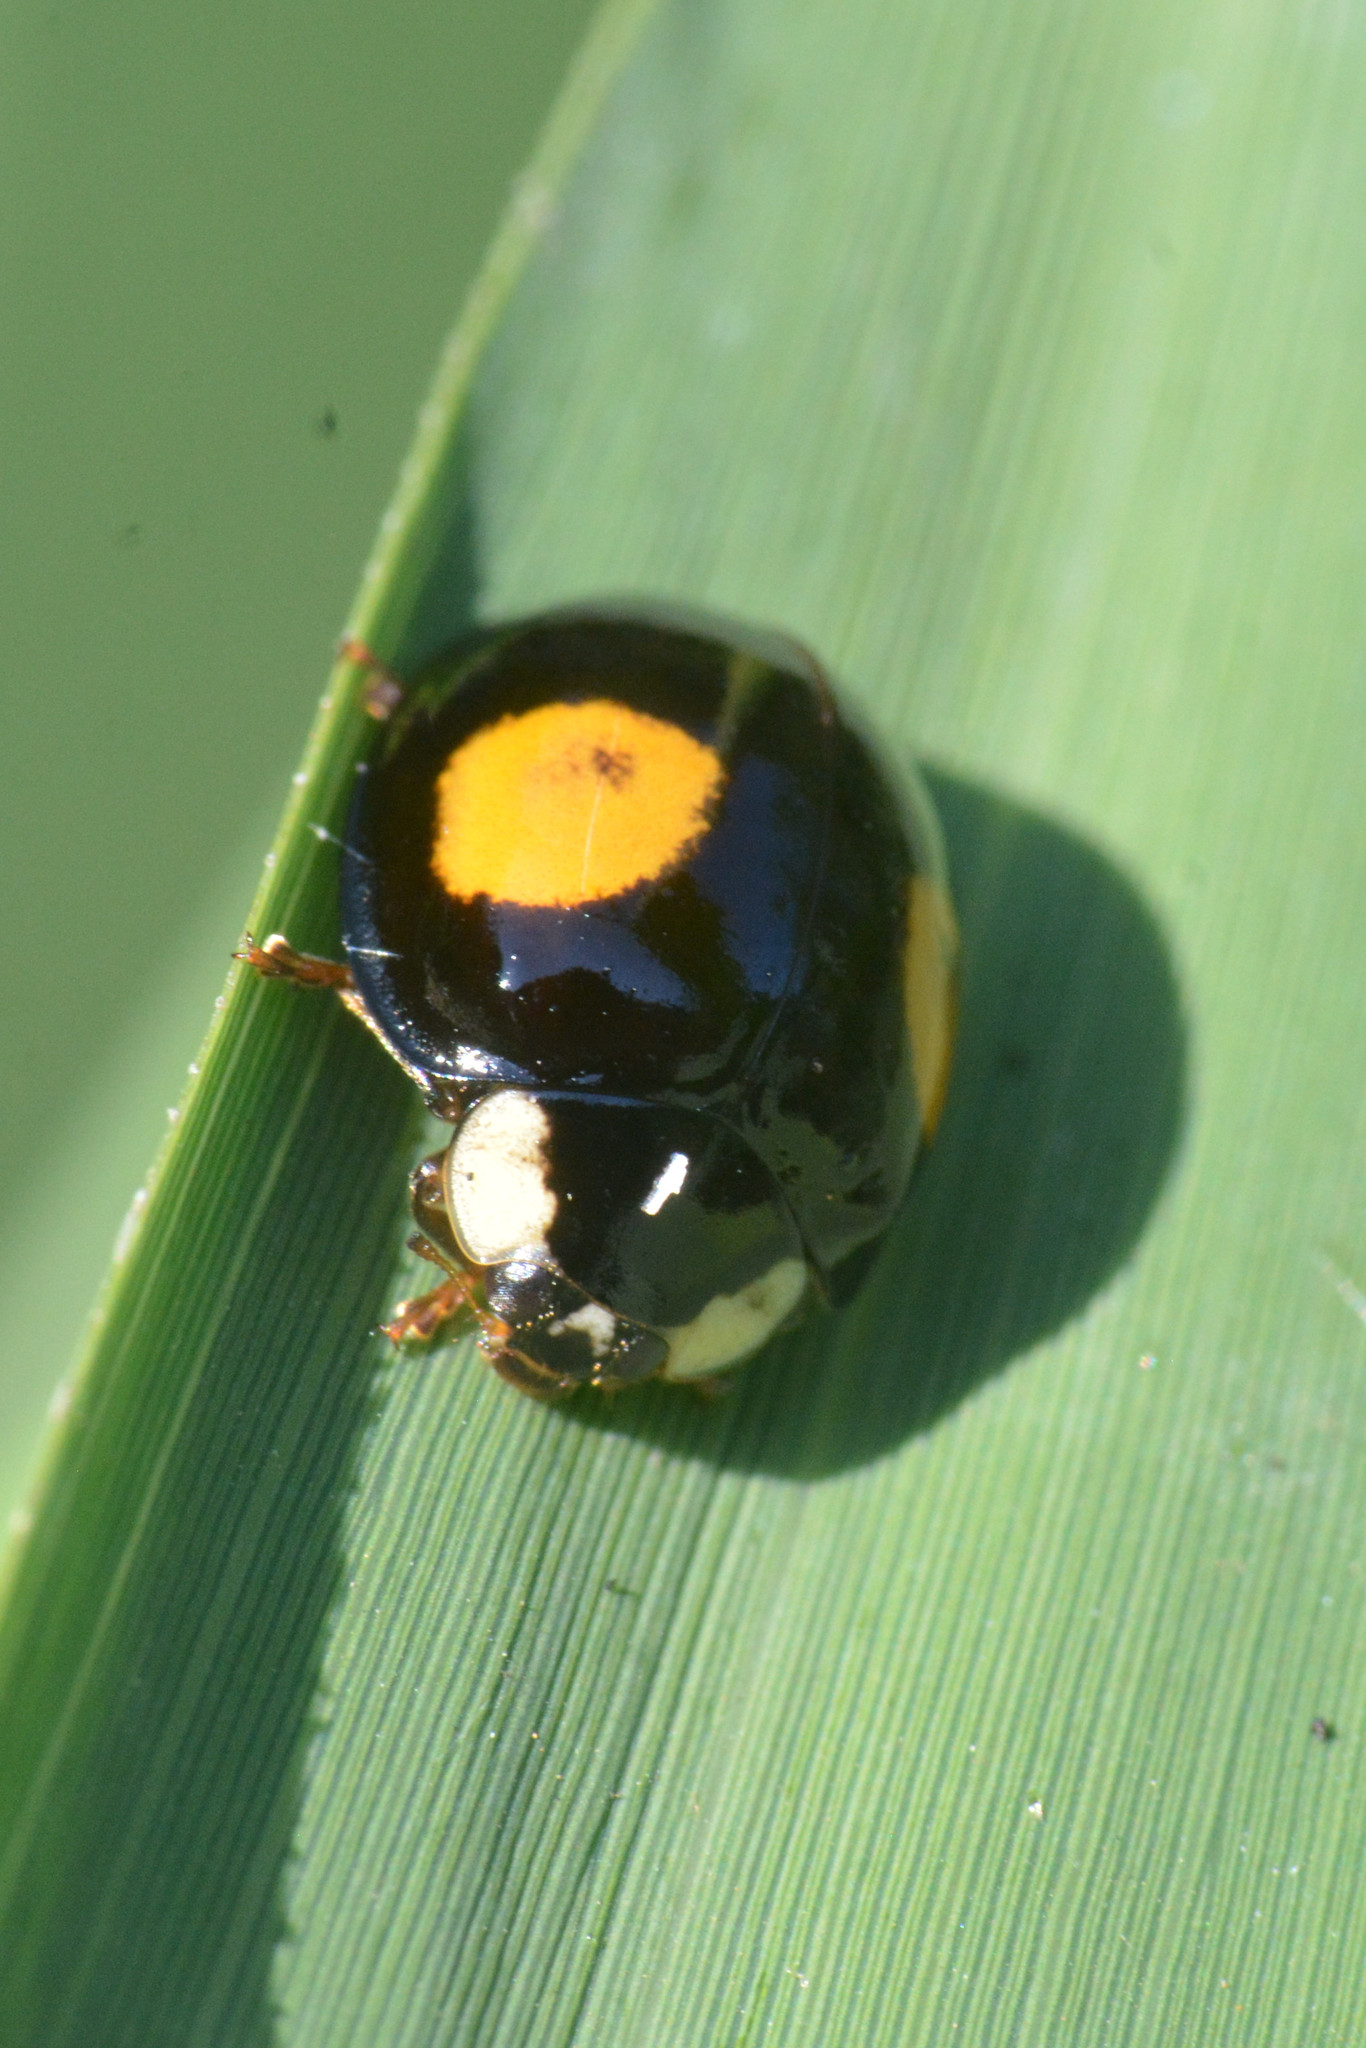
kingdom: Animalia
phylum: Arthropoda
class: Insecta
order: Coleoptera
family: Coccinellidae
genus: Harmonia
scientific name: Harmonia axyridis
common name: Harlequin ladybird
